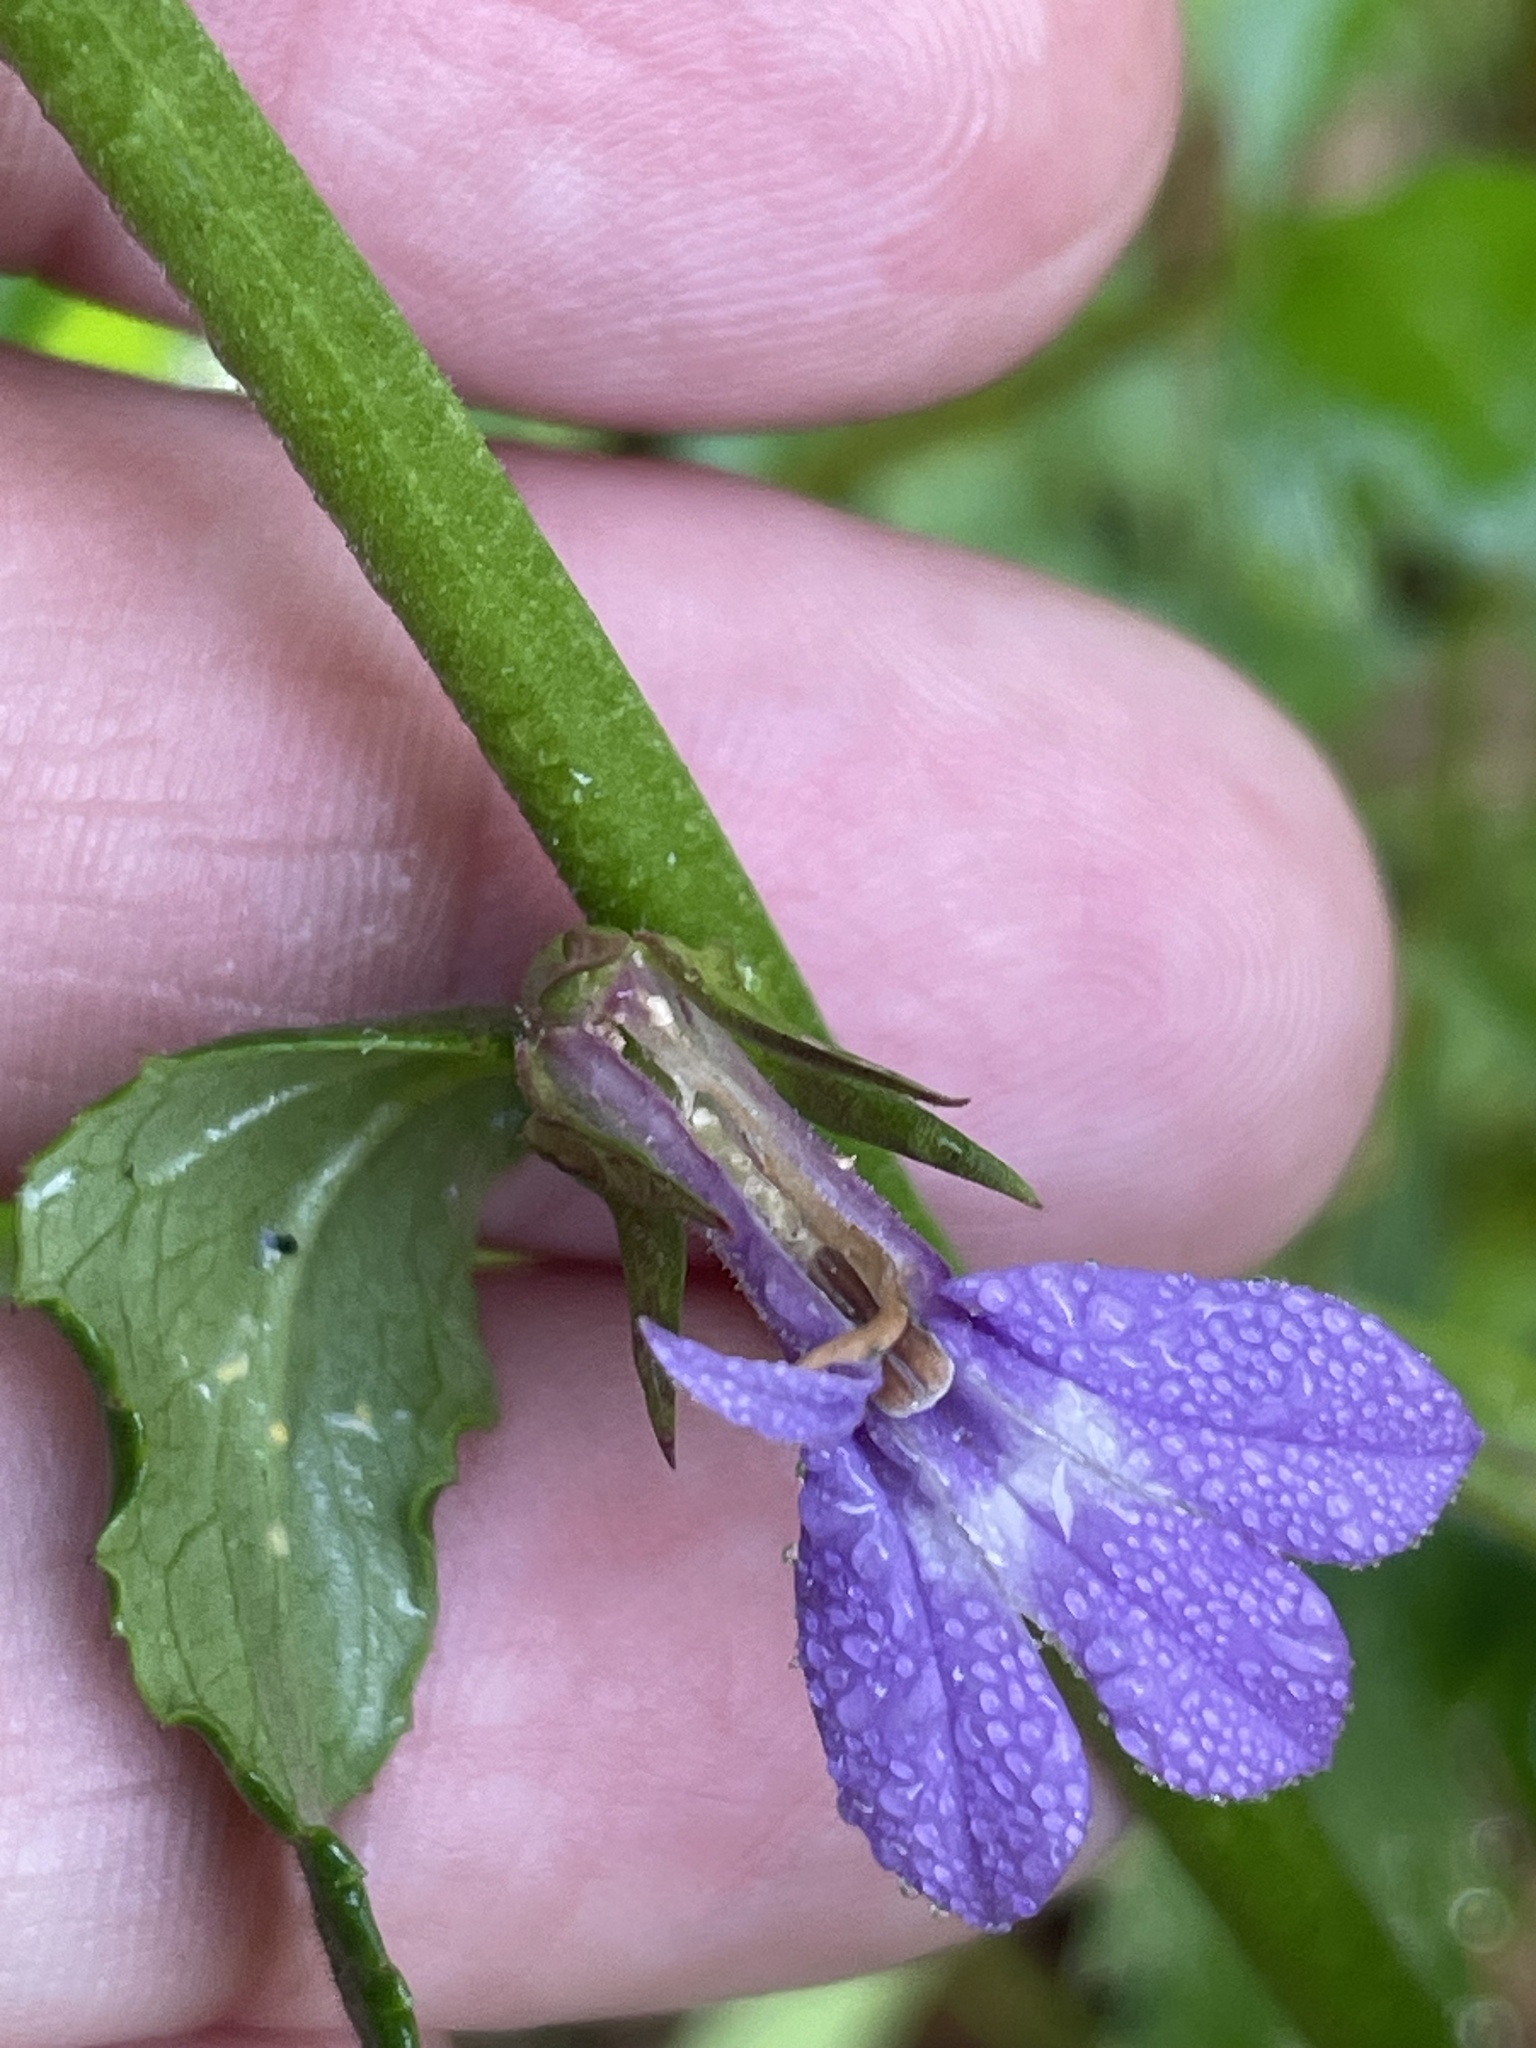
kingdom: Plantae
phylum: Tracheophyta
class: Magnoliopsida
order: Asterales
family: Campanulaceae
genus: Lobelia
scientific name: Lobelia puberula
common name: Purple dewdrop
